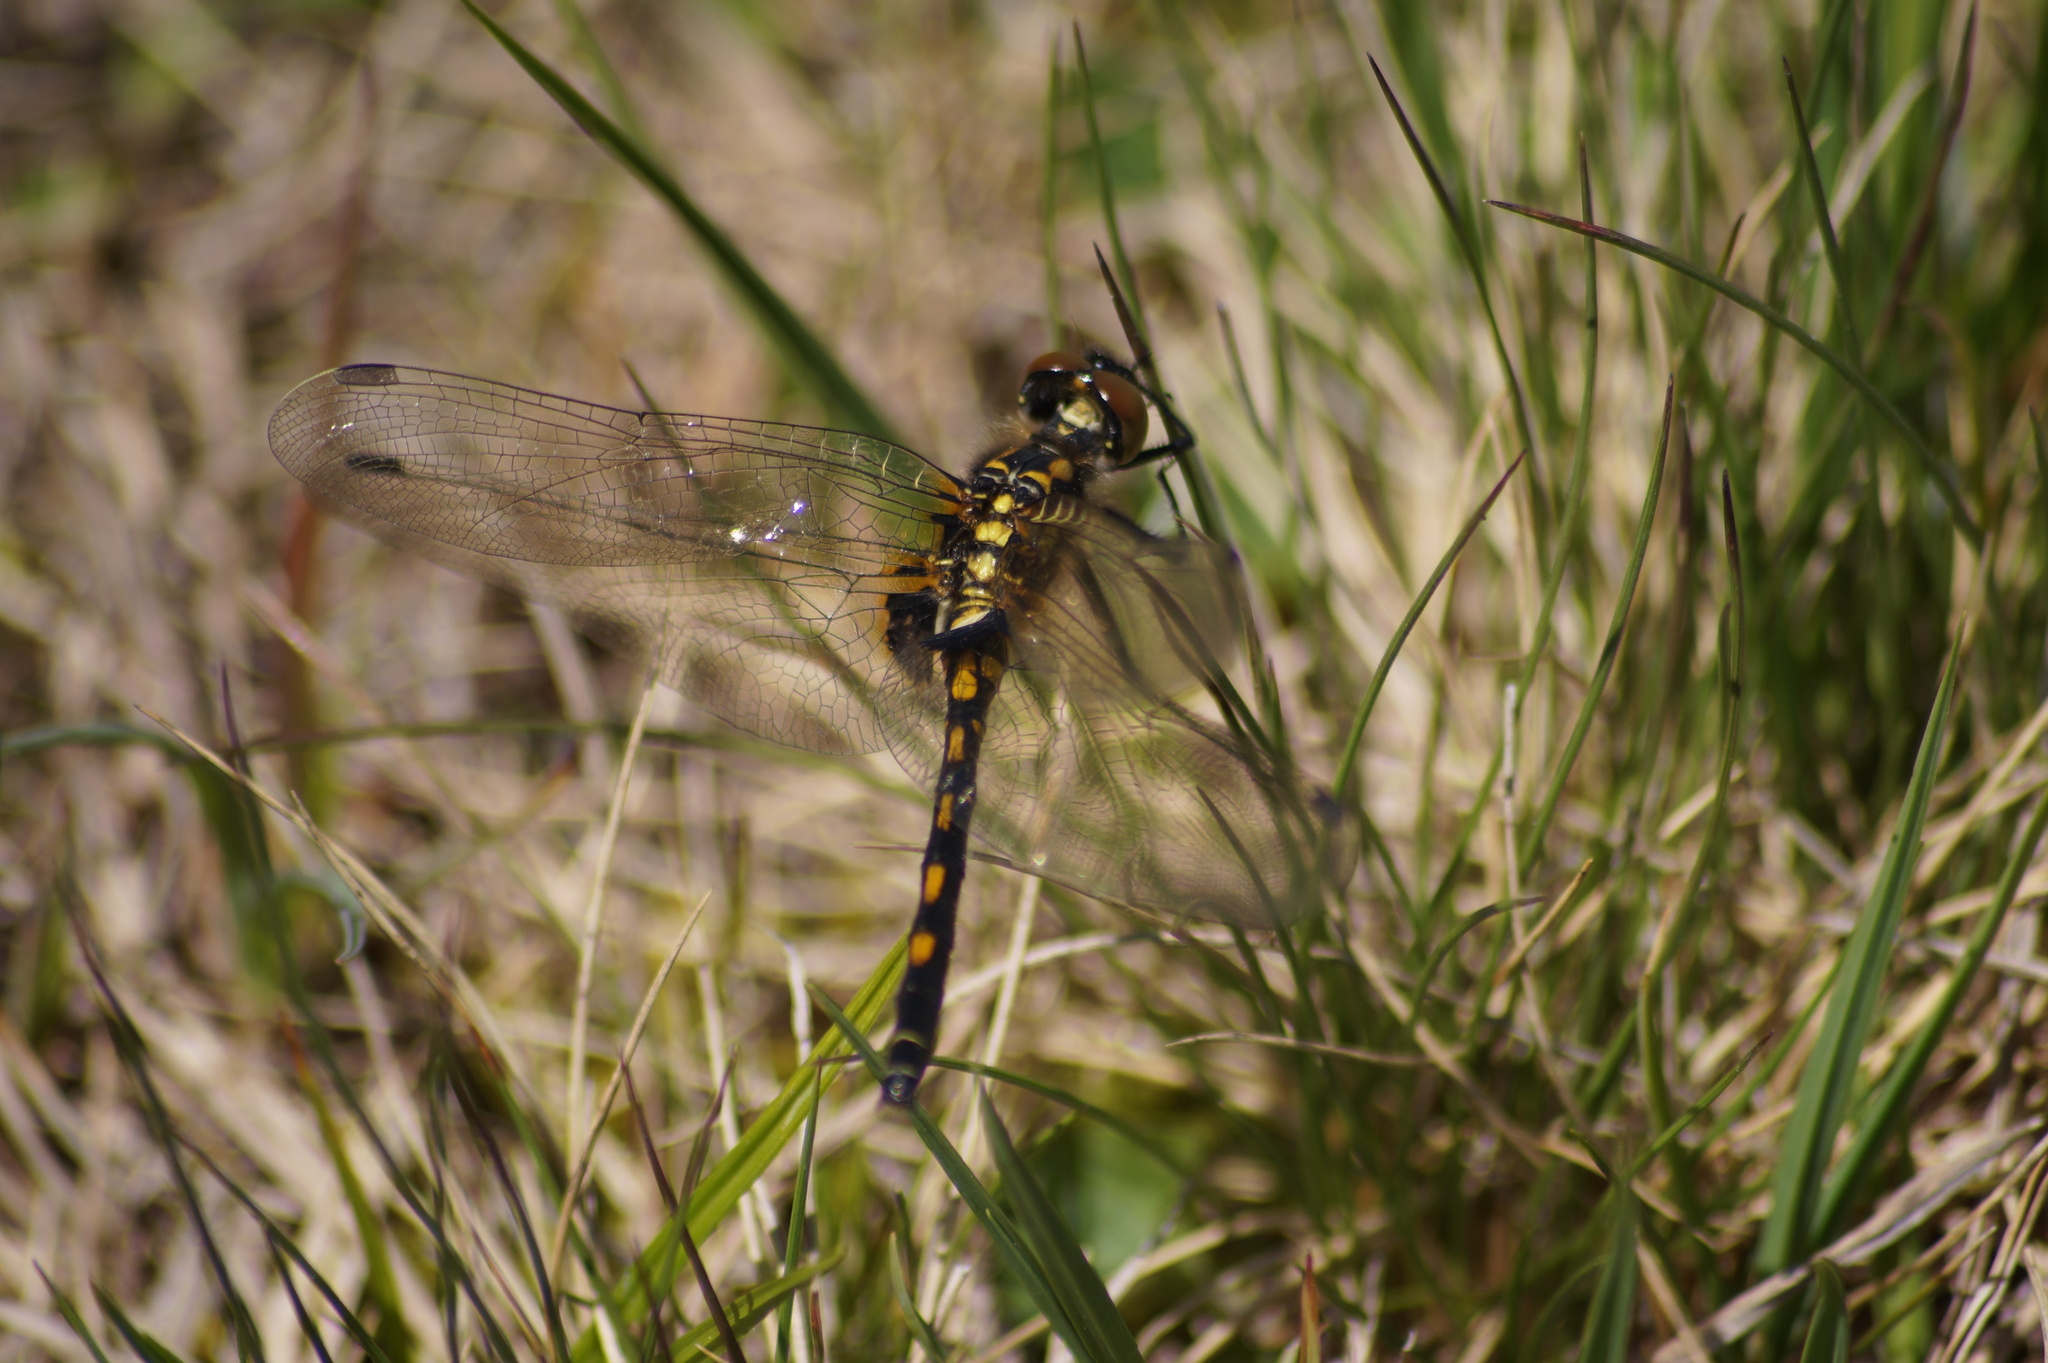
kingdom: Animalia
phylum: Arthropoda
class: Insecta
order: Odonata
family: Libellulidae
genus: Leucorrhinia
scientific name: Leucorrhinia dubia
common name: White-faced darter
